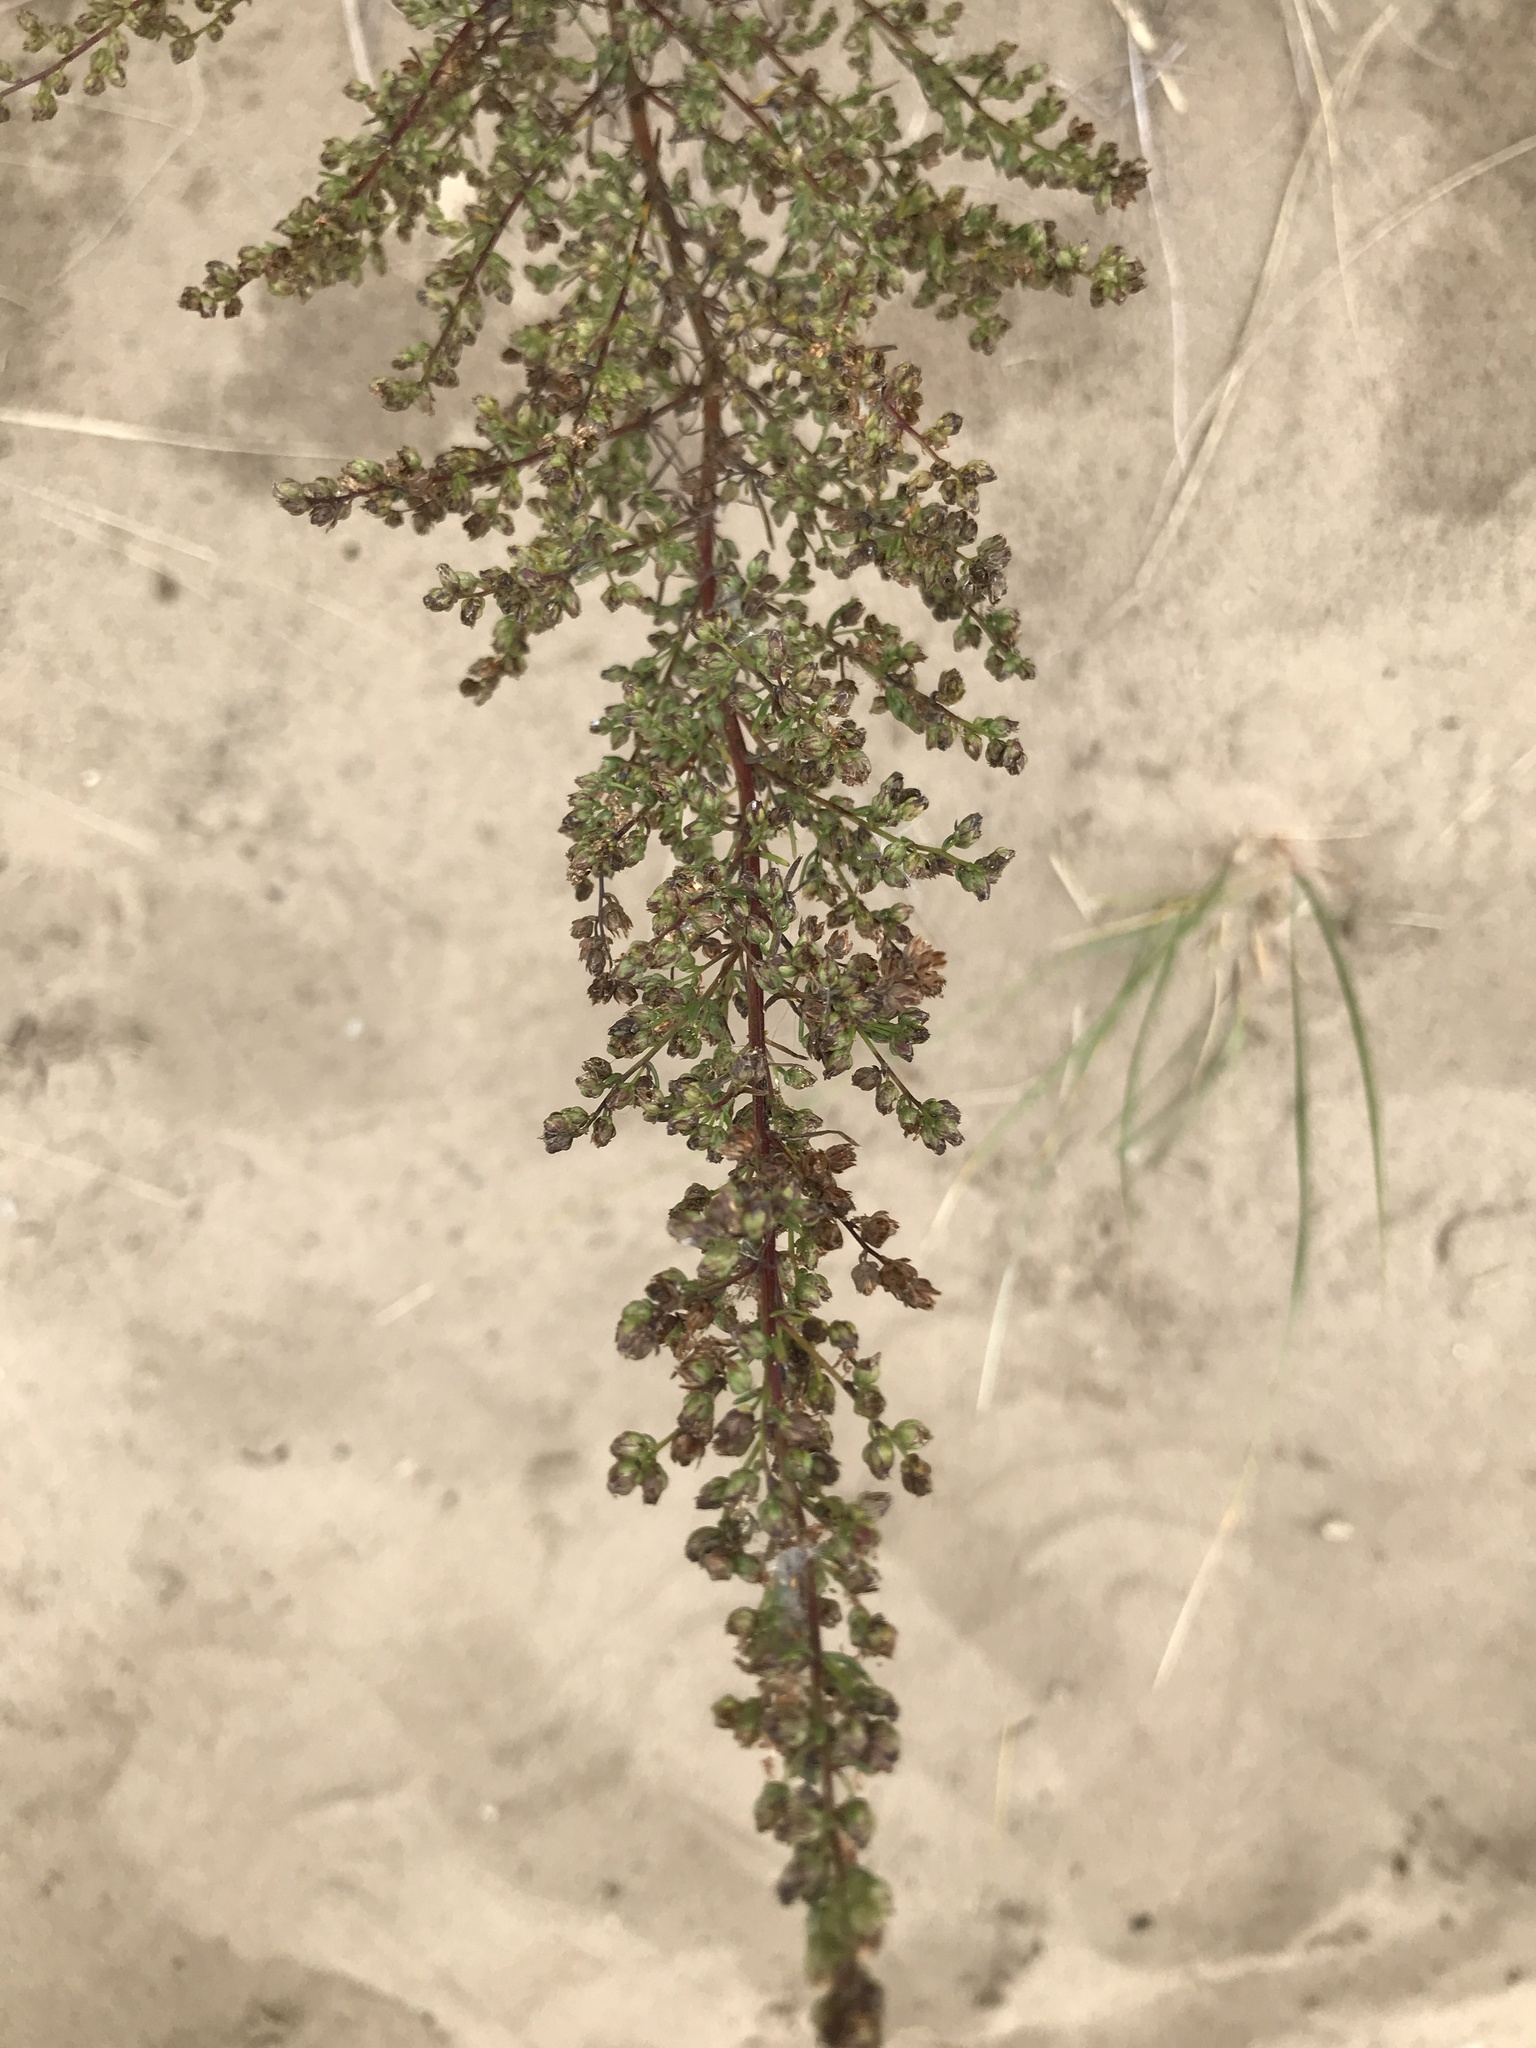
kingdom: Plantae
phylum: Tracheophyta
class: Magnoliopsida
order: Asterales
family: Asteraceae
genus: Artemisia
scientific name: Artemisia campestris
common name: Field wormwood
